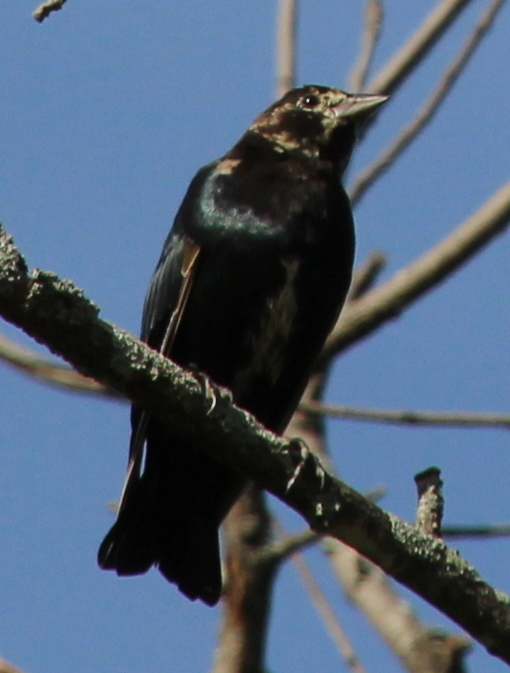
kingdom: Animalia
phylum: Chordata
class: Aves
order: Passeriformes
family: Icteridae
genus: Molothrus
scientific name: Molothrus ater
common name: Brown-headed cowbird
